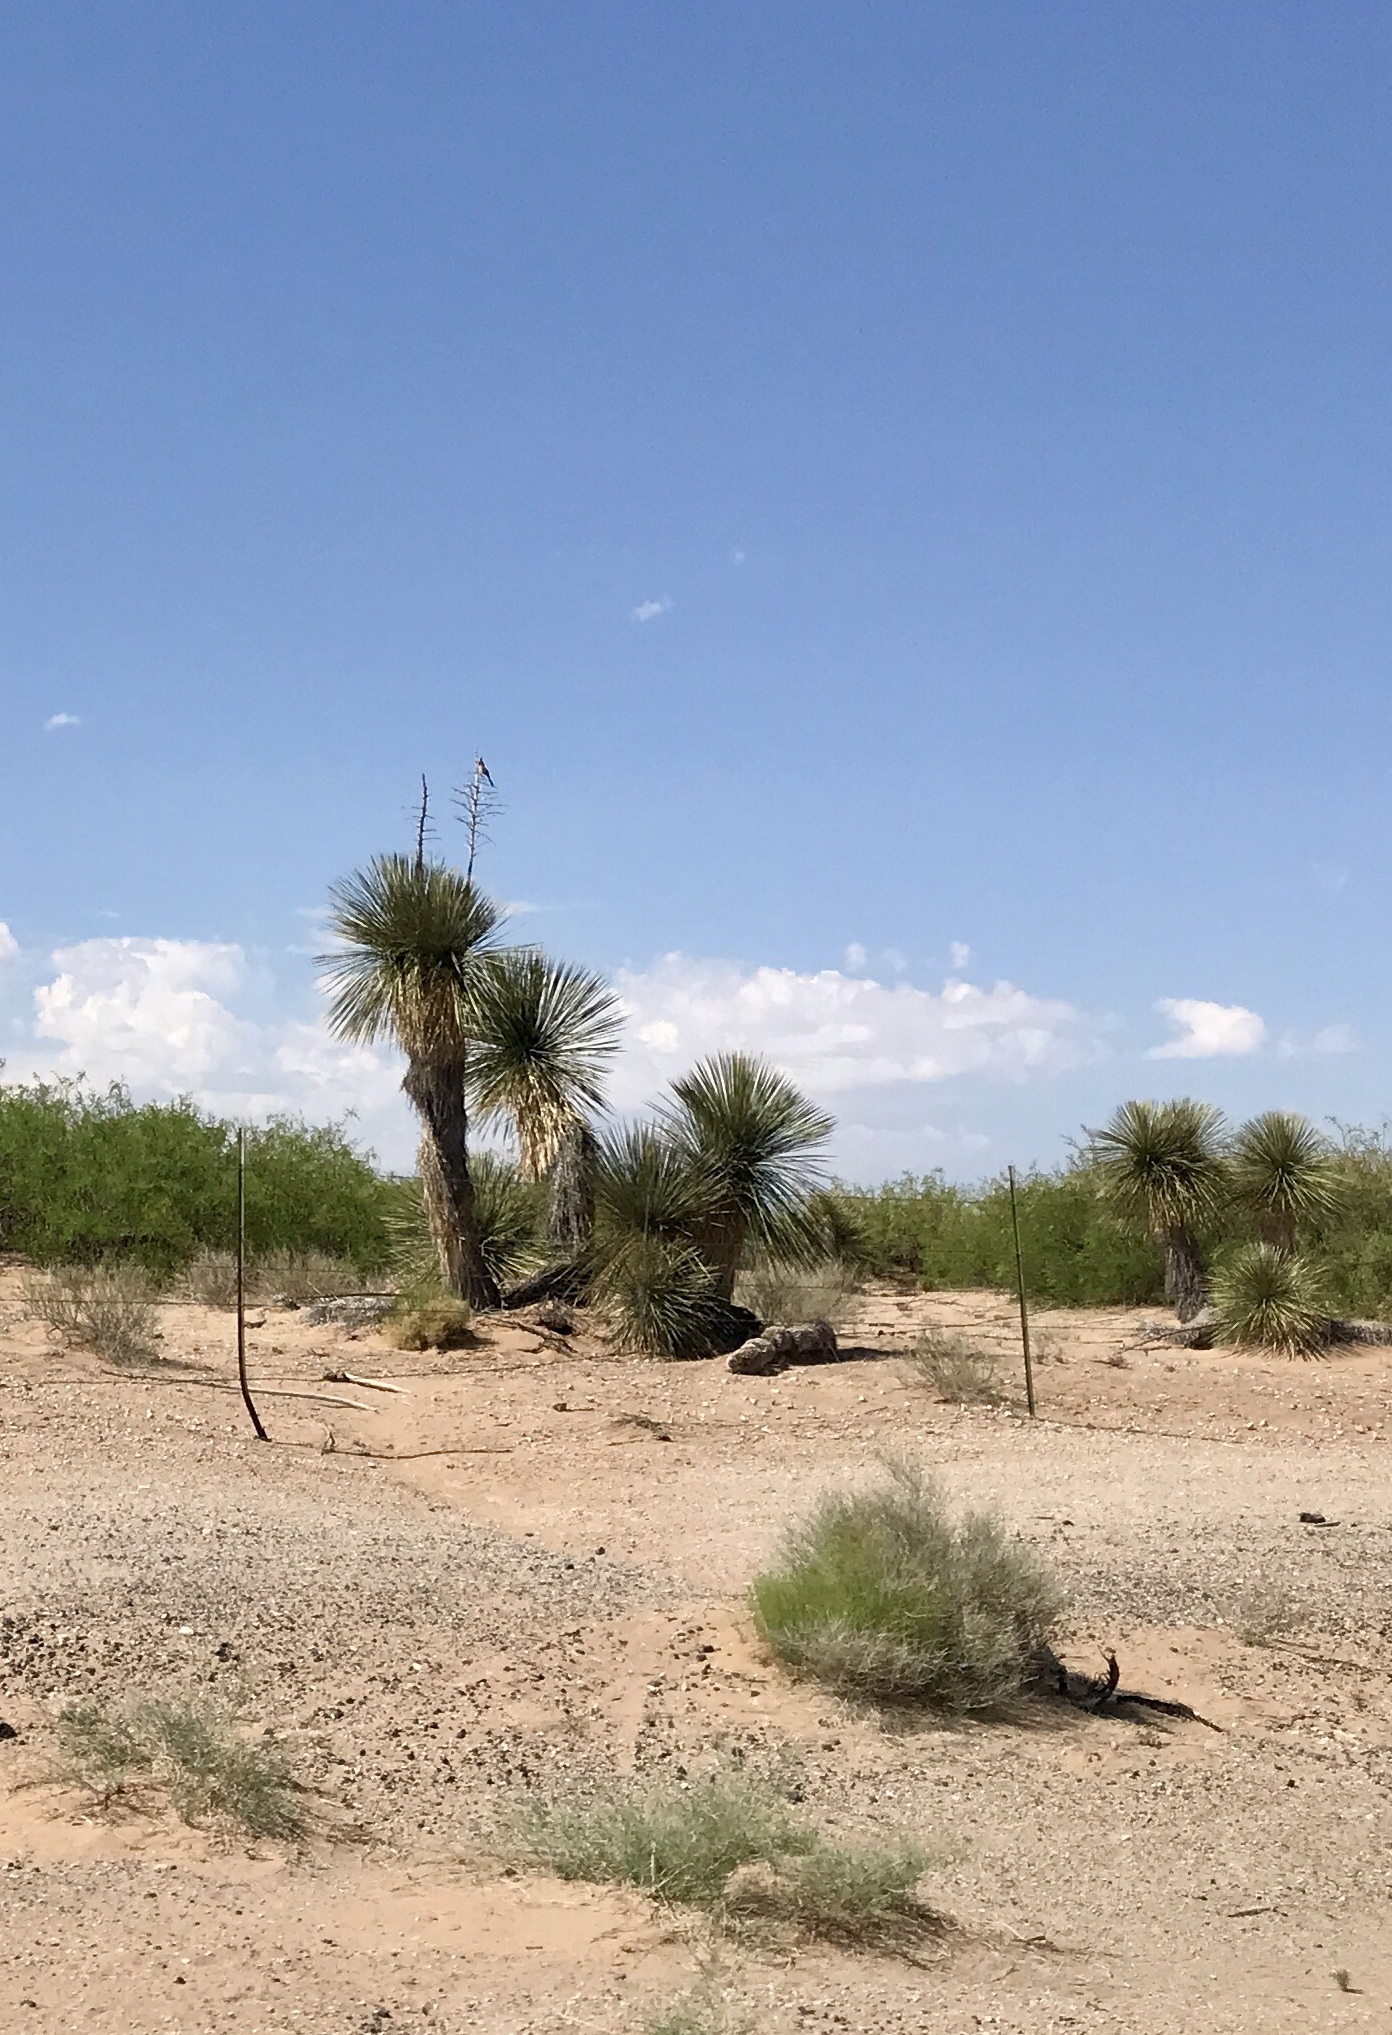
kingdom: Plantae
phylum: Tracheophyta
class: Liliopsida
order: Asparagales
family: Asparagaceae
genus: Yucca
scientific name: Yucca elata
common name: Palmella
